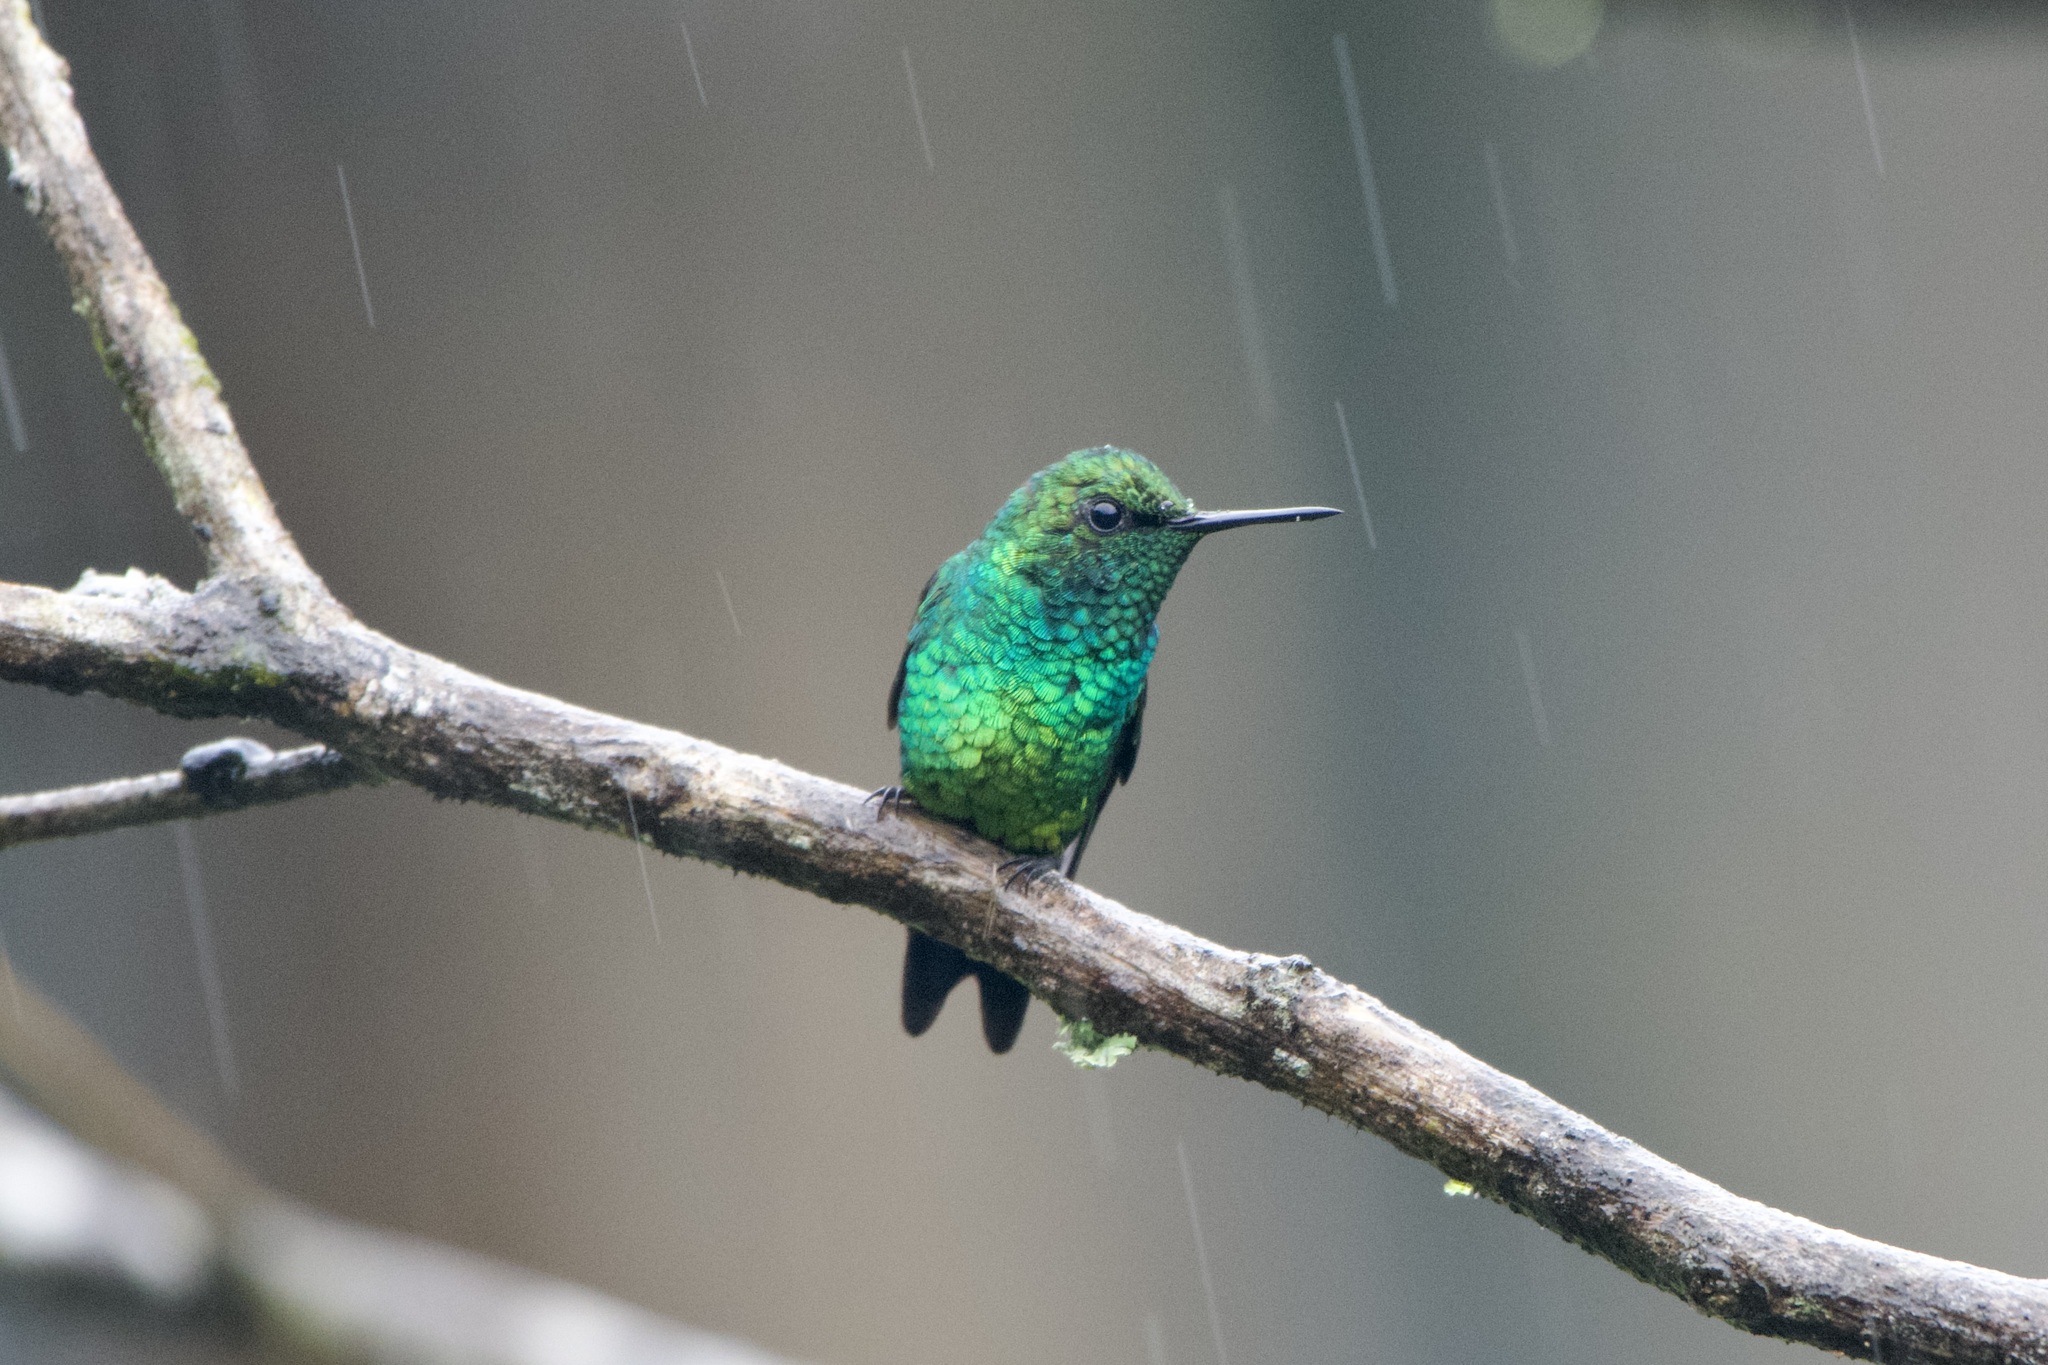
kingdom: Animalia
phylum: Chordata
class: Aves
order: Apodiformes
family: Trochilidae
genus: Chlorostilbon
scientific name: Chlorostilbon melanorhynchus
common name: Western emerald
